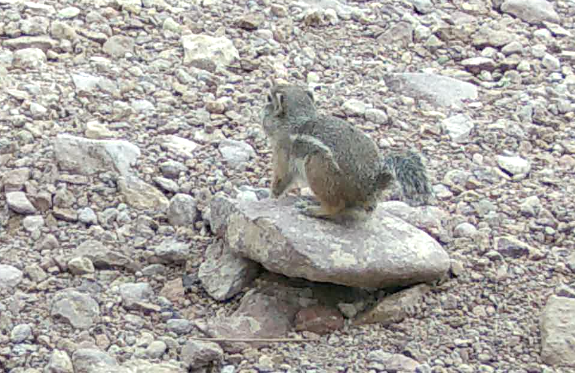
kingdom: Animalia
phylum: Chordata
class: Mammalia
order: Rodentia
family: Sciuridae
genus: Ammospermophilus
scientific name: Ammospermophilus harrisii
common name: Harris's antelope squirrel
